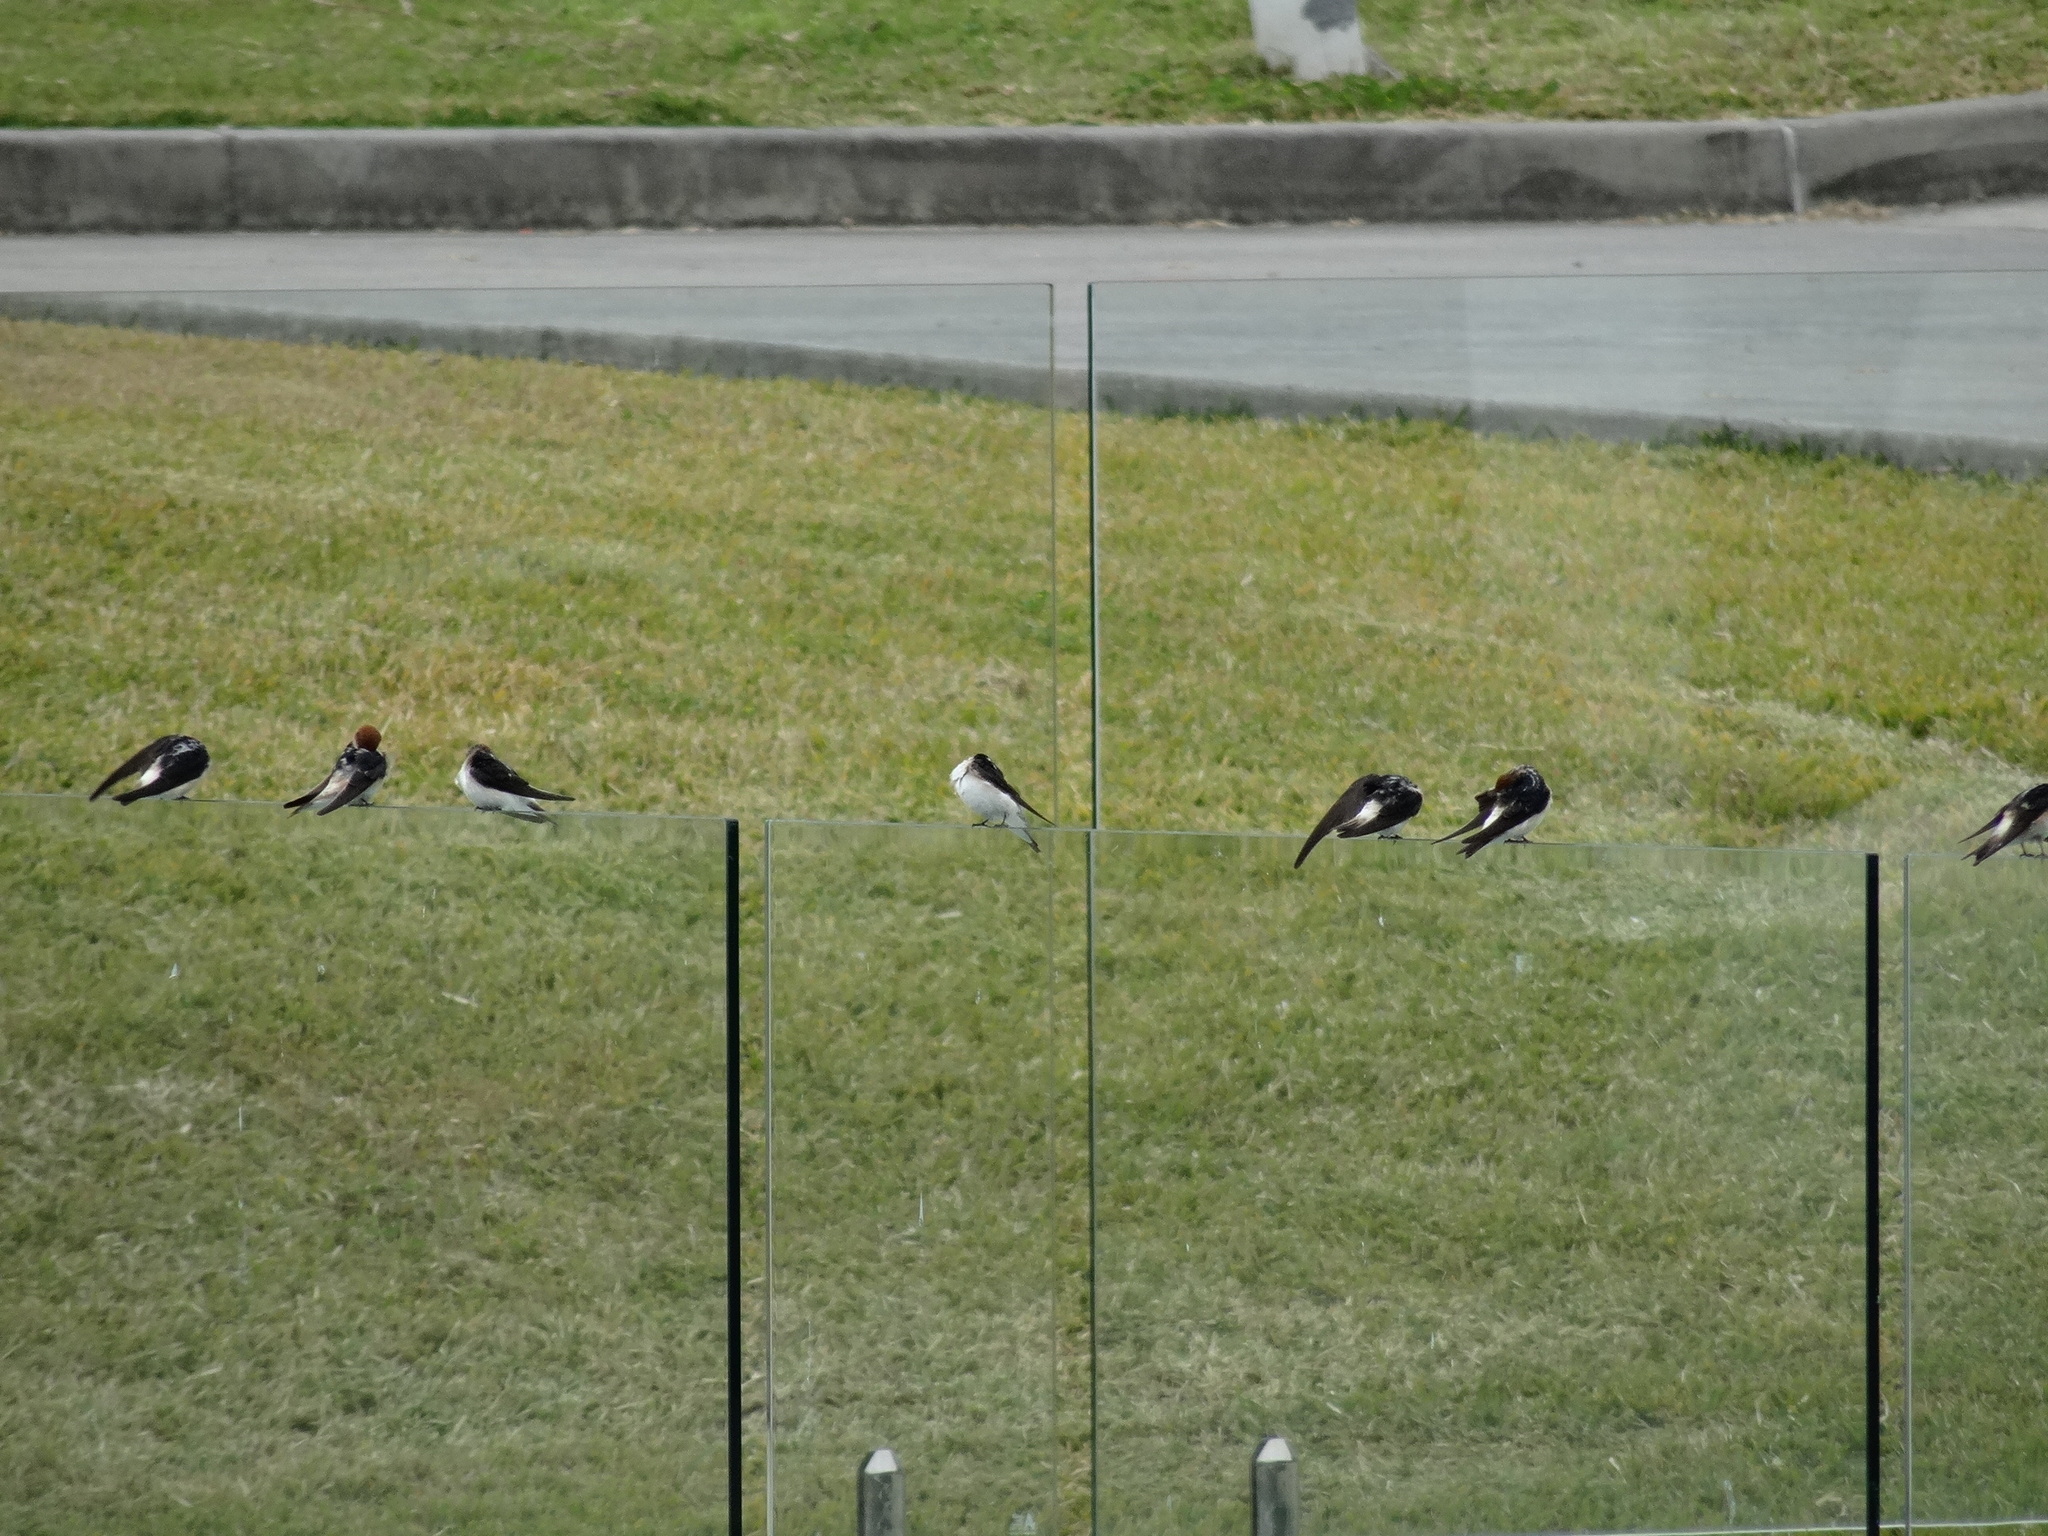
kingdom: Animalia
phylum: Chordata
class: Aves
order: Passeriformes
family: Hirundinidae
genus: Petrochelidon
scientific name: Petrochelidon ariel
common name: Fairy martin
